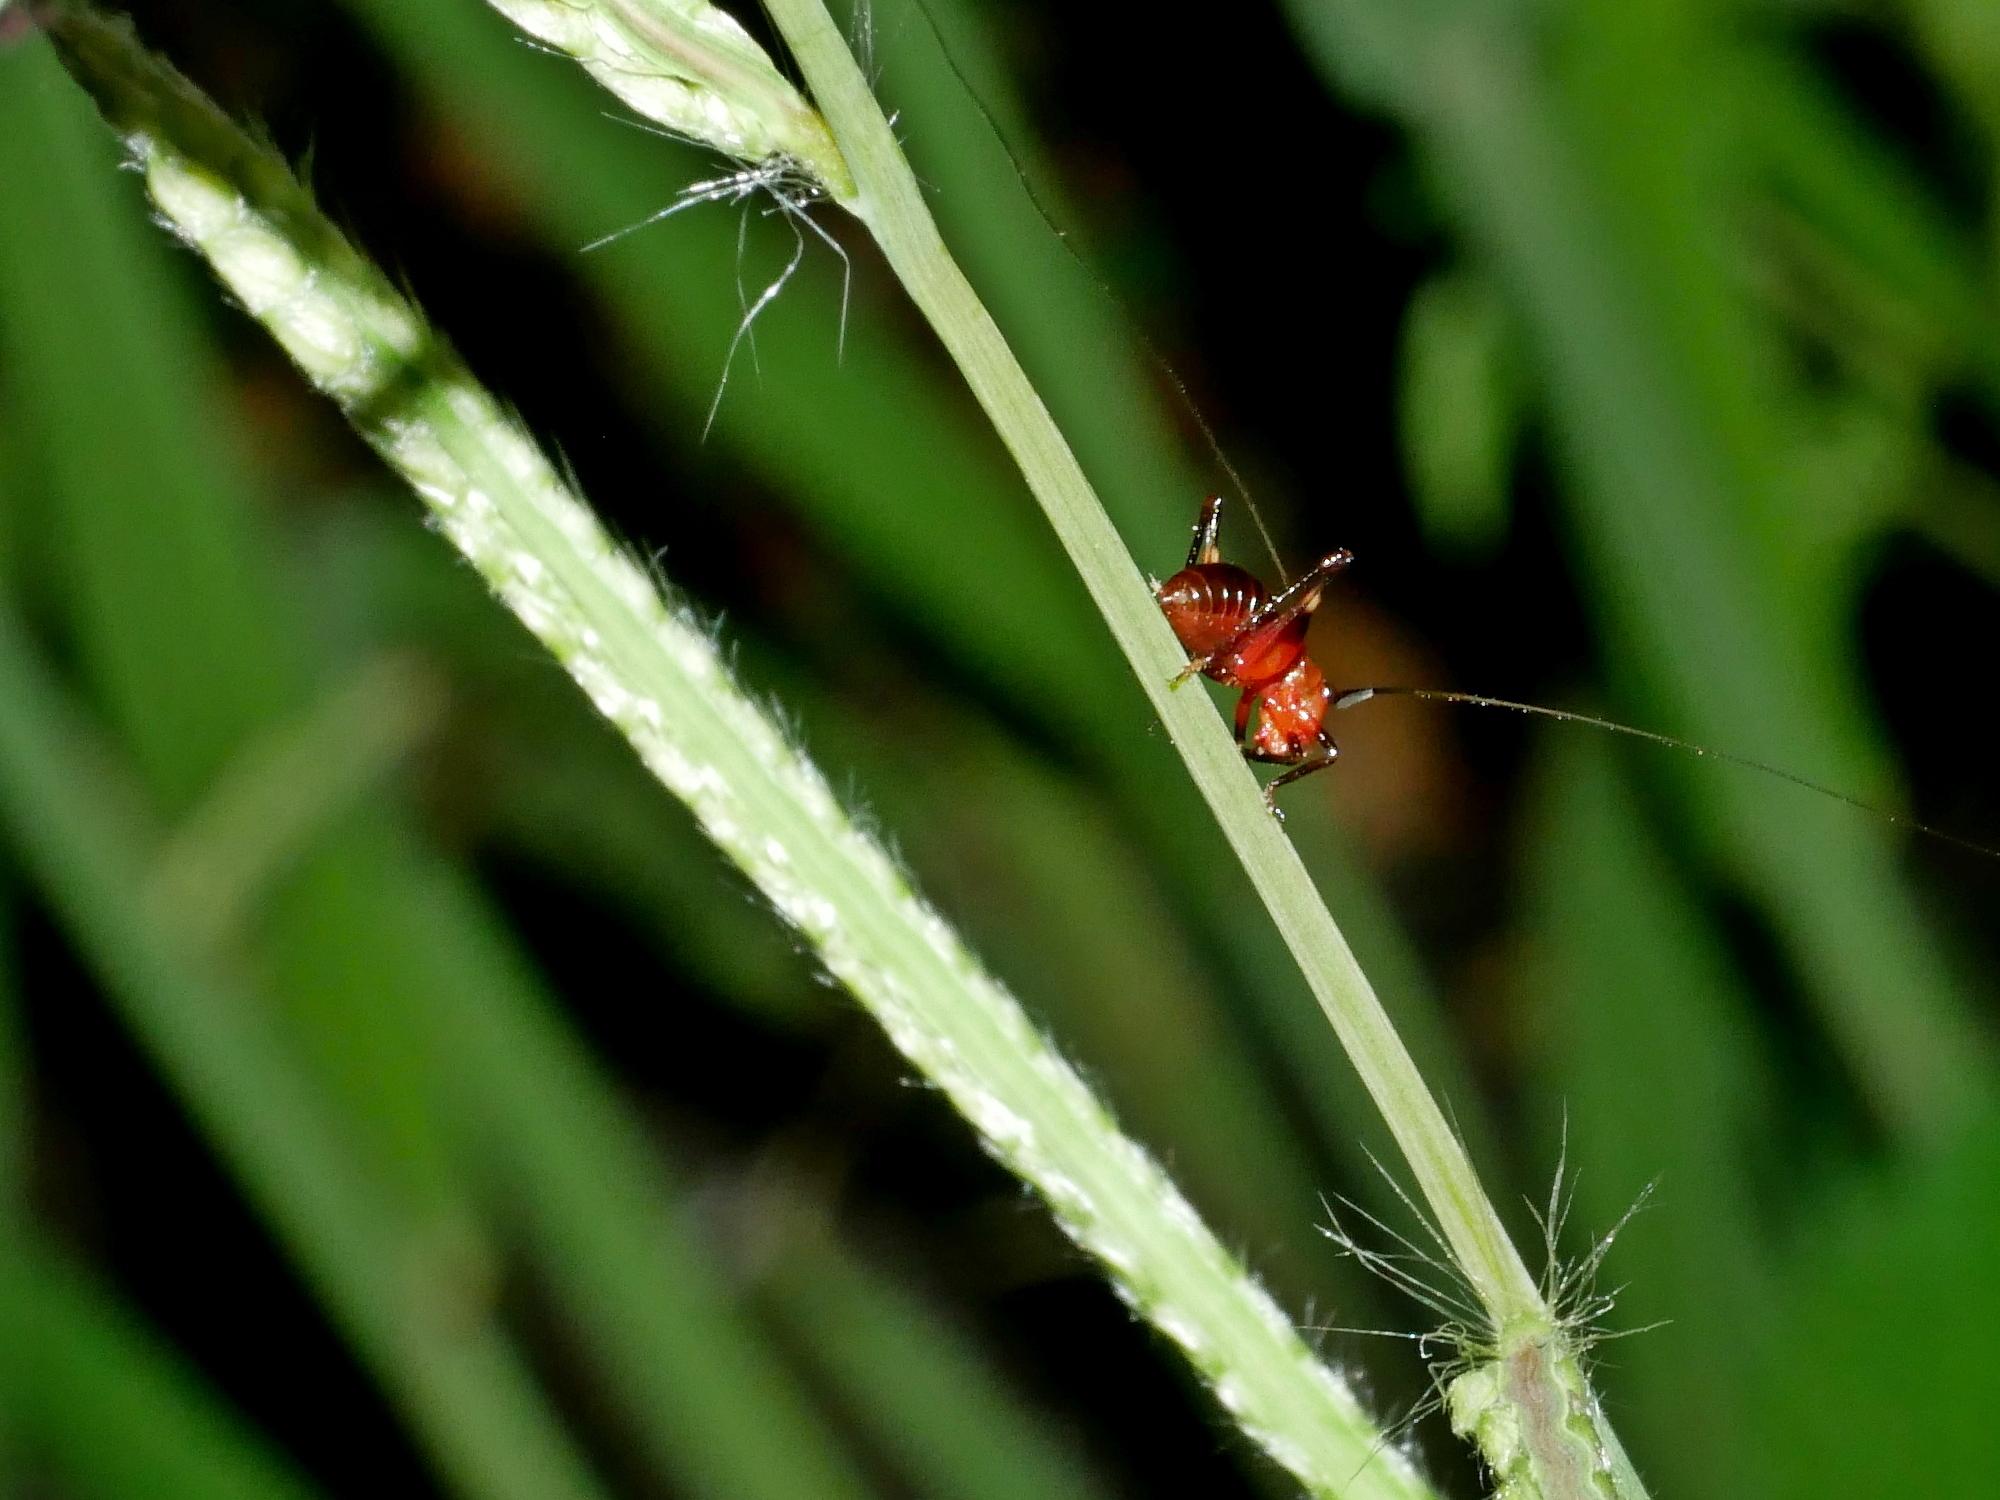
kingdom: Animalia
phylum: Arthropoda
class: Insecta
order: Orthoptera
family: Tettigoniidae
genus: Conocephalus
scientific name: Conocephalus melaenus
